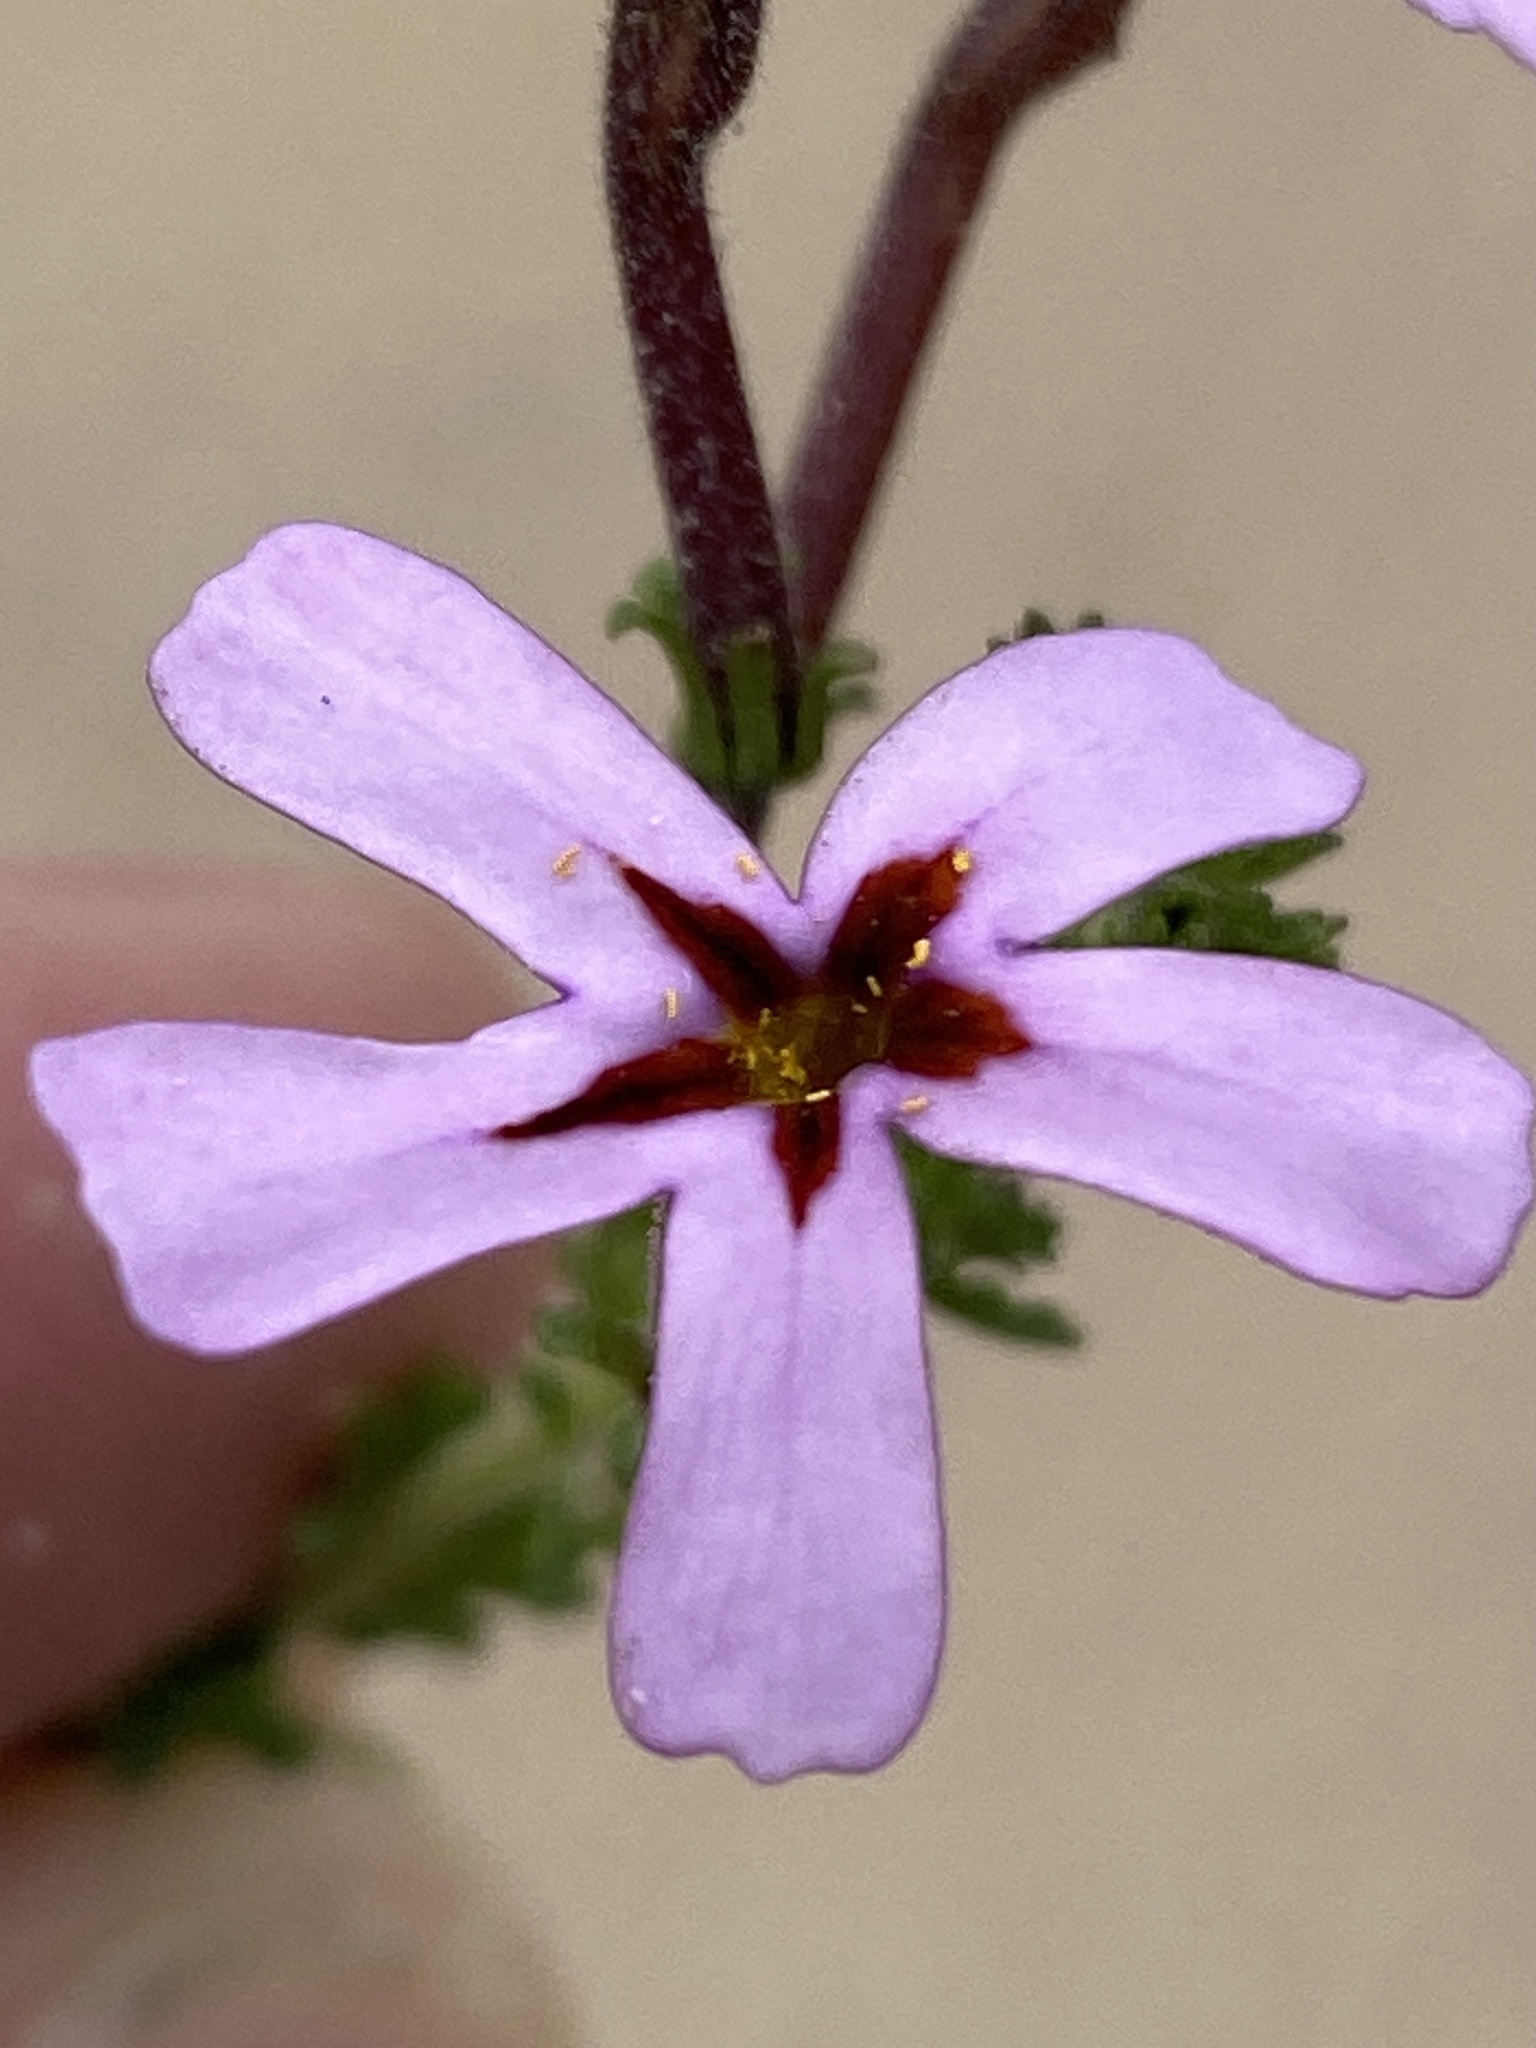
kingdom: Plantae
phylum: Tracheophyta
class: Magnoliopsida
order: Lamiales
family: Scrophulariaceae
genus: Jamesbrittenia
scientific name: Jamesbrittenia stellata
